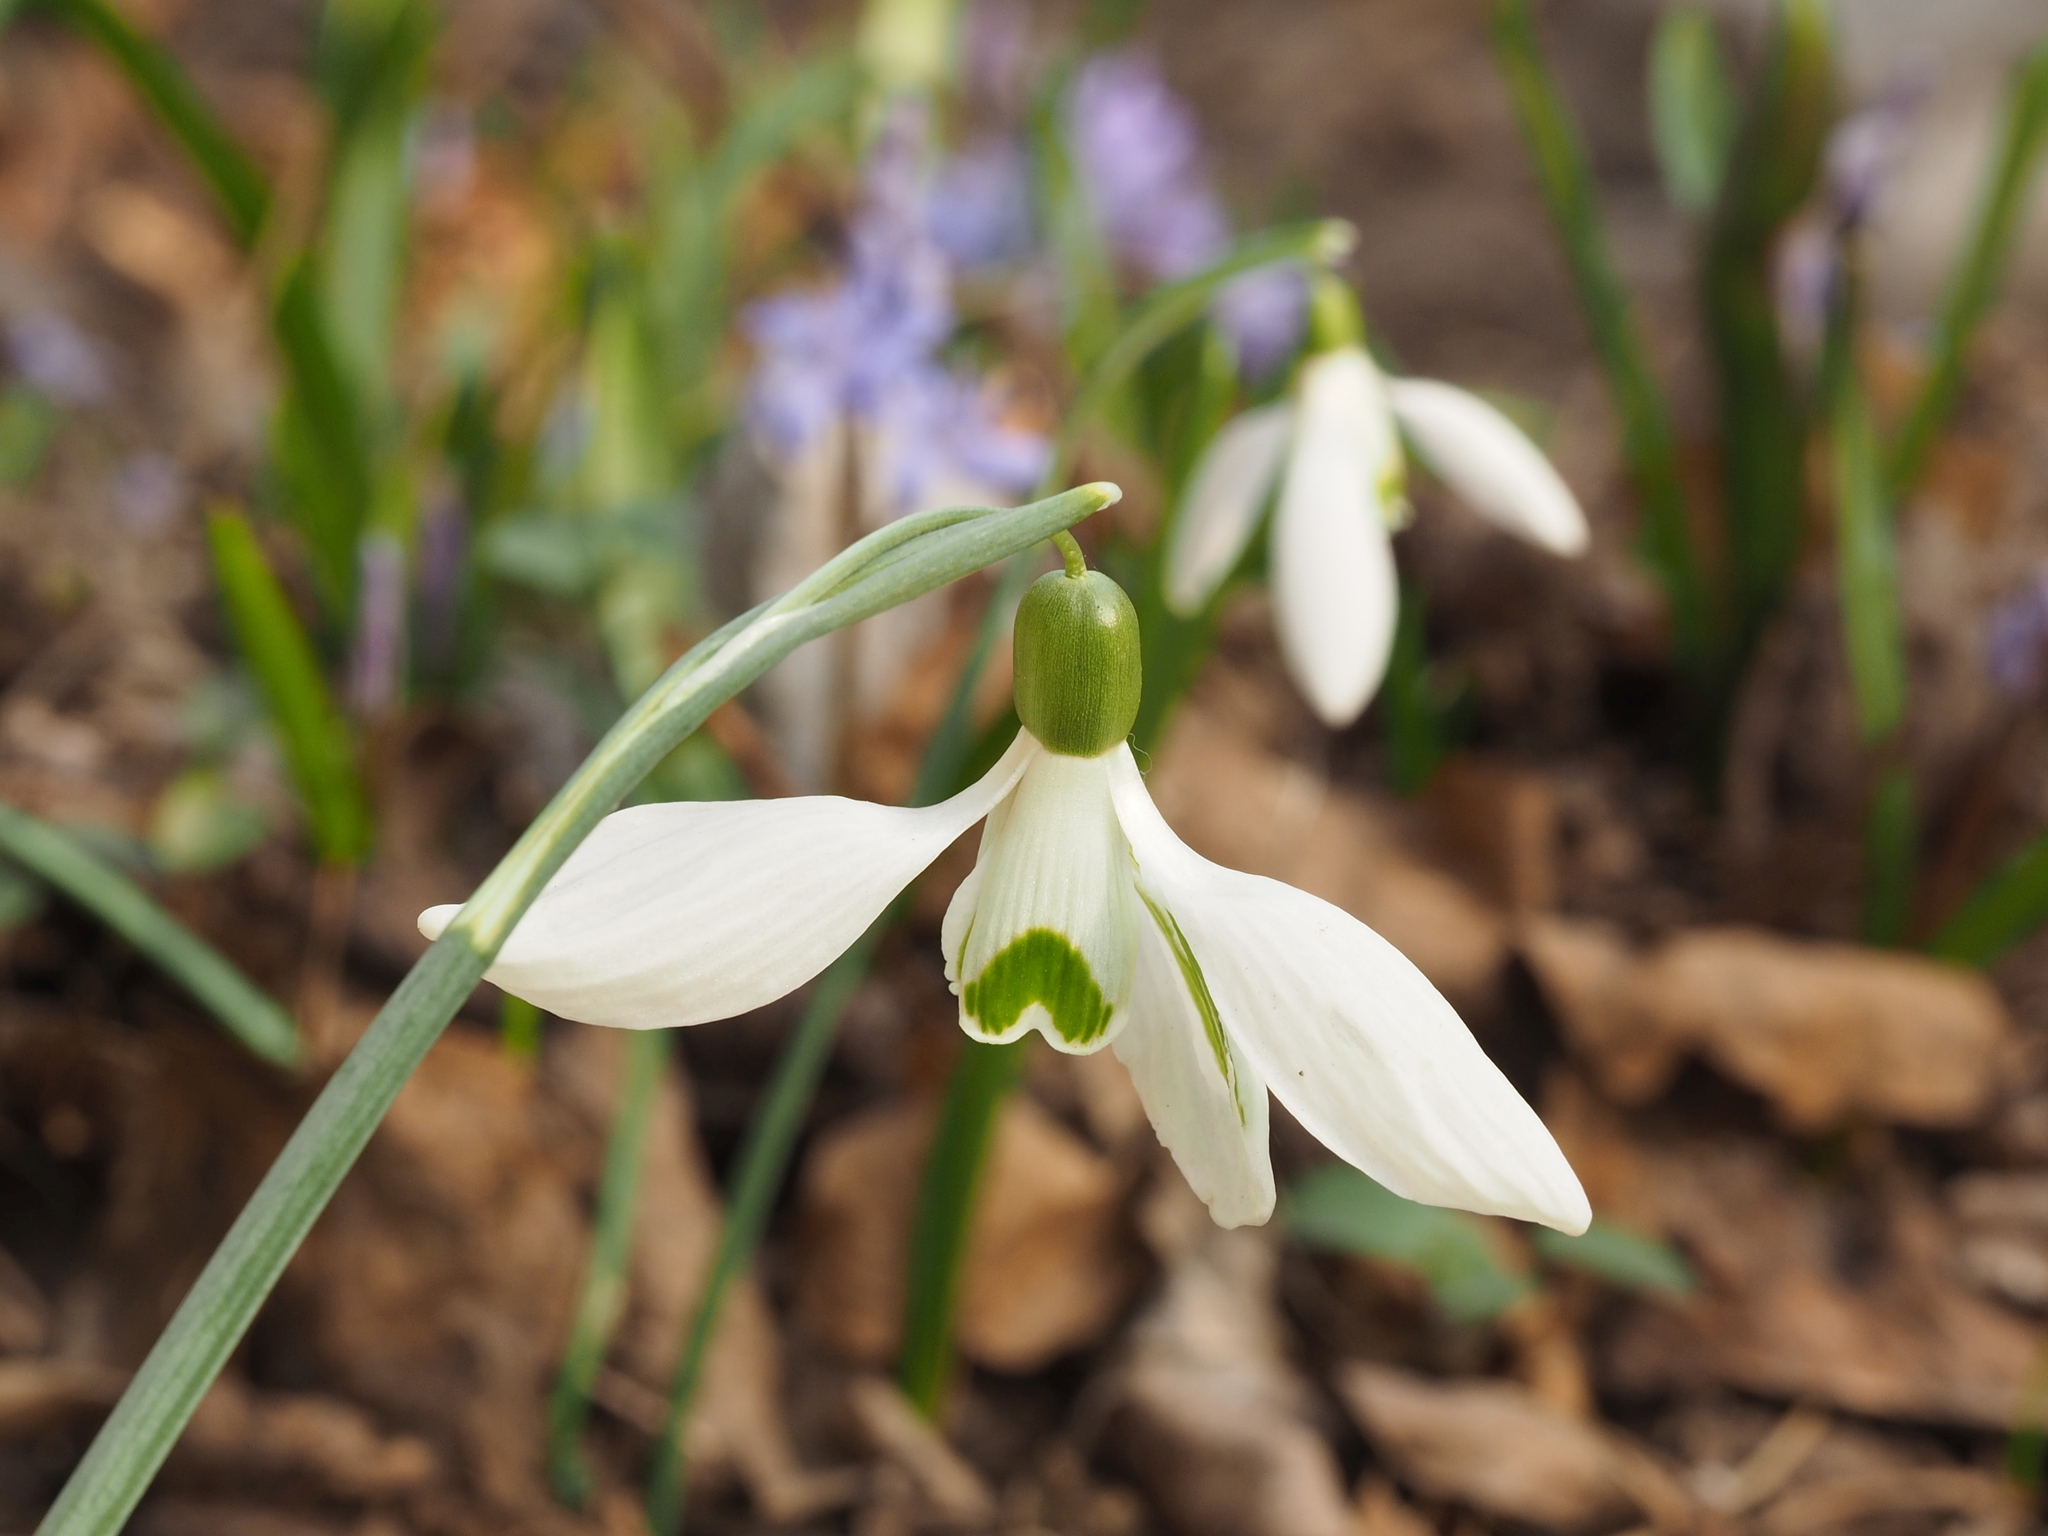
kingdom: Plantae
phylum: Tracheophyta
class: Liliopsida
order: Asparagales
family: Amaryllidaceae
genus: Galanthus
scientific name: Galanthus nivalis
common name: Snowdrop
